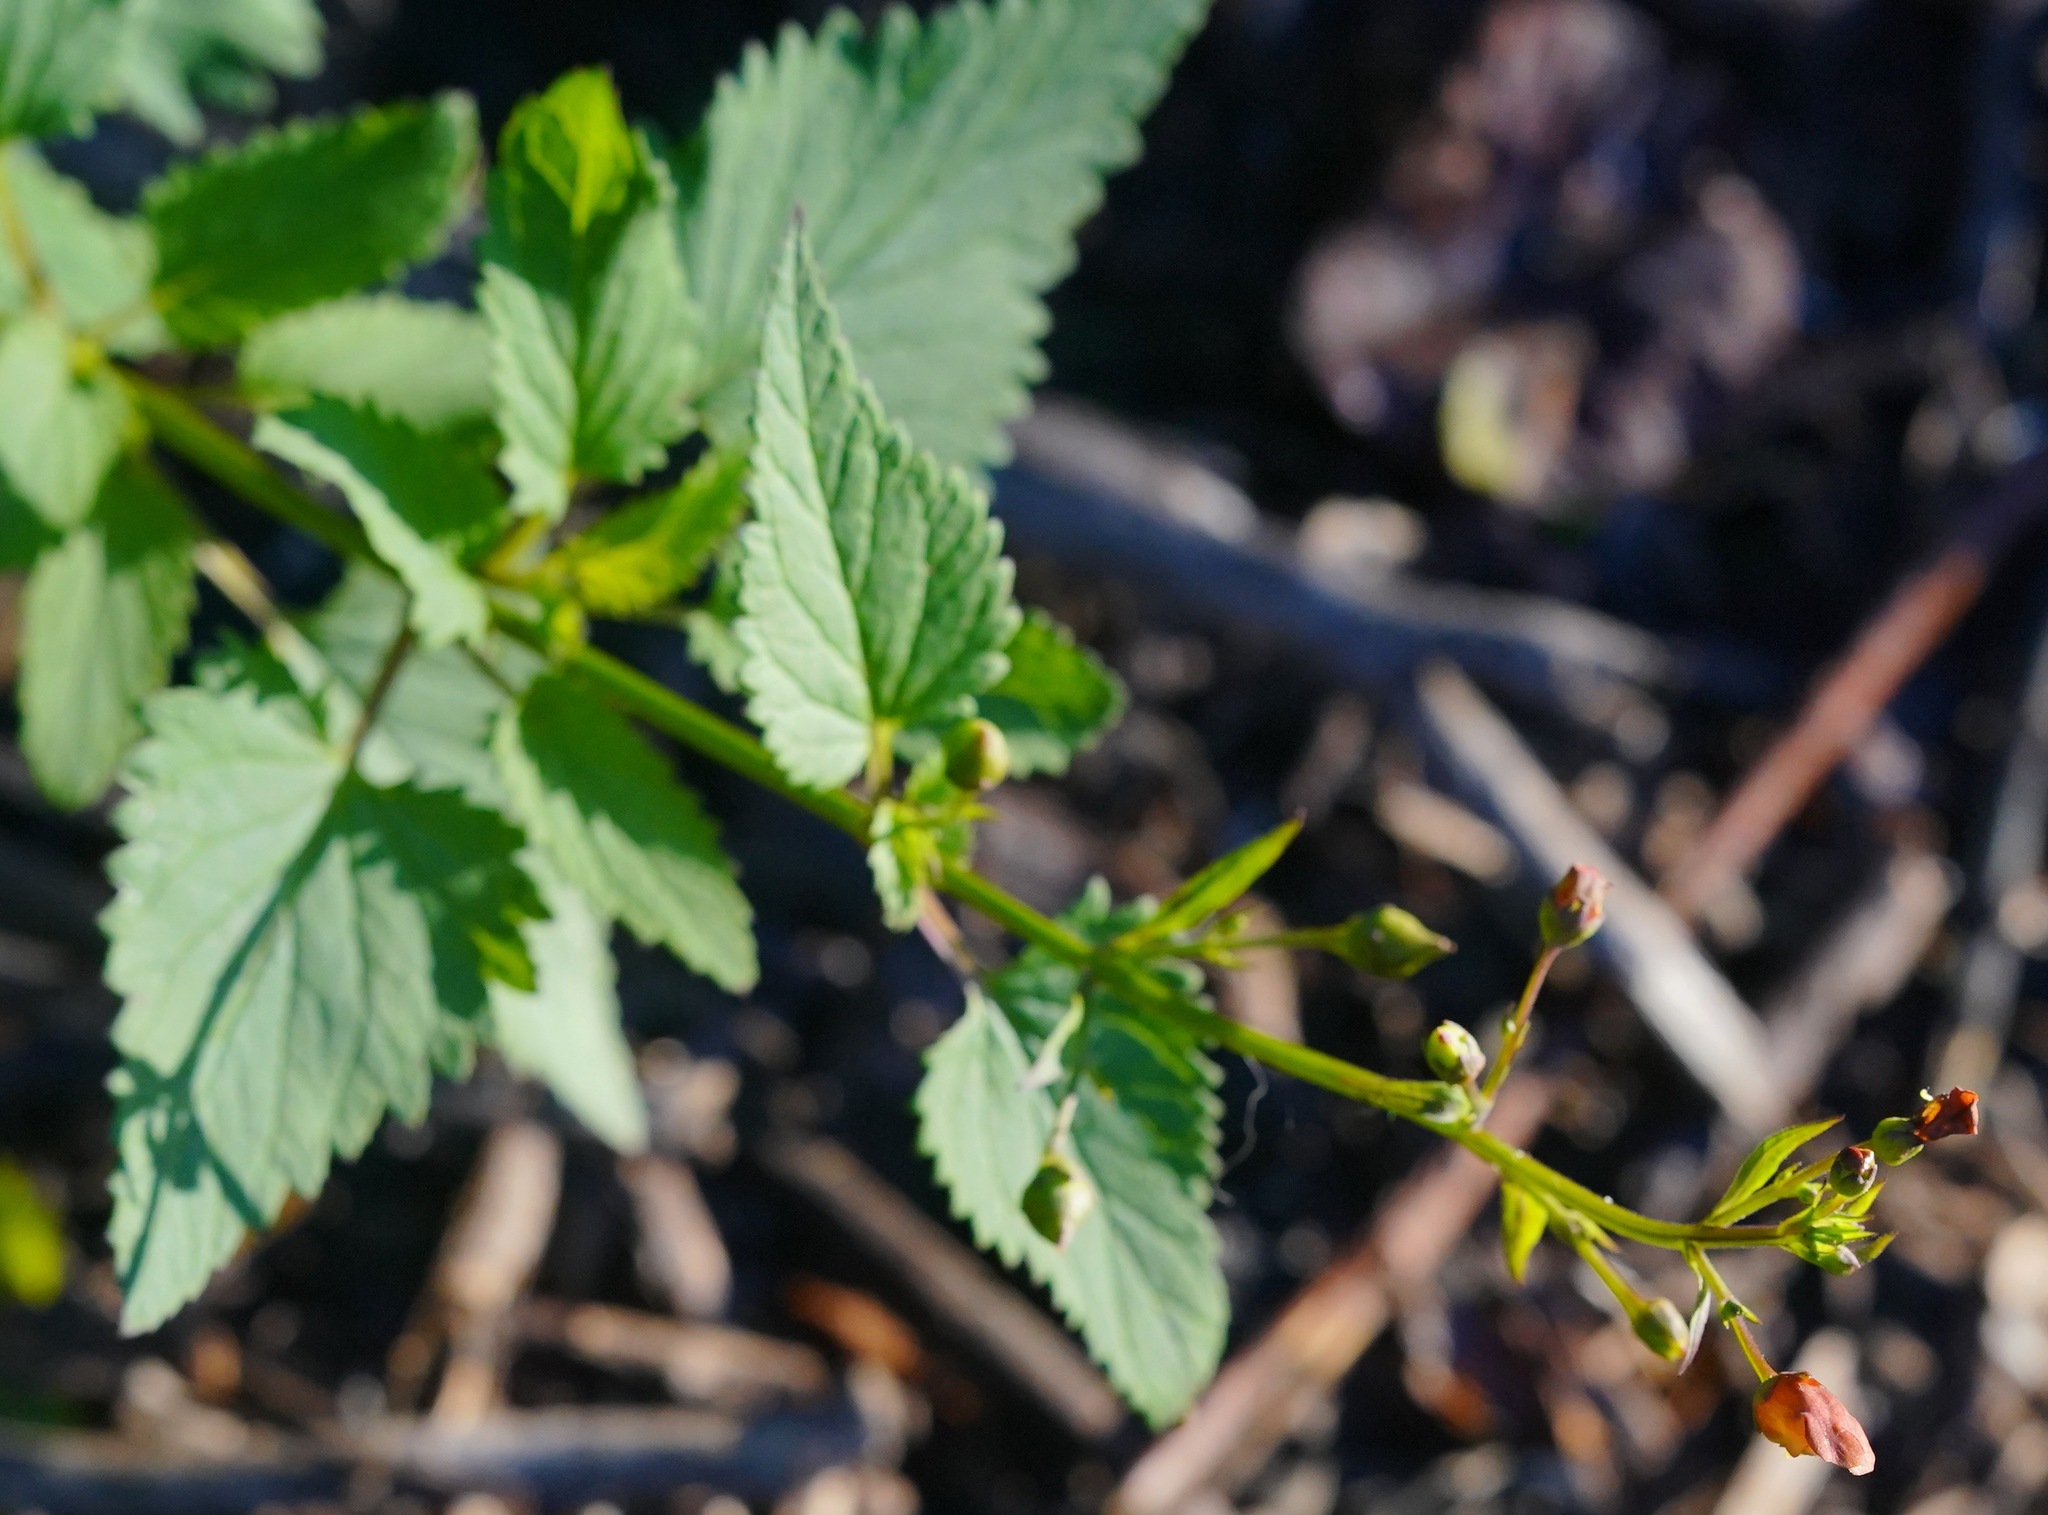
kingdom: Plantae
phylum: Tracheophyta
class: Magnoliopsida
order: Lamiales
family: Scrophulariaceae
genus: Scrophularia
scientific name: Scrophularia californica
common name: California figwort
